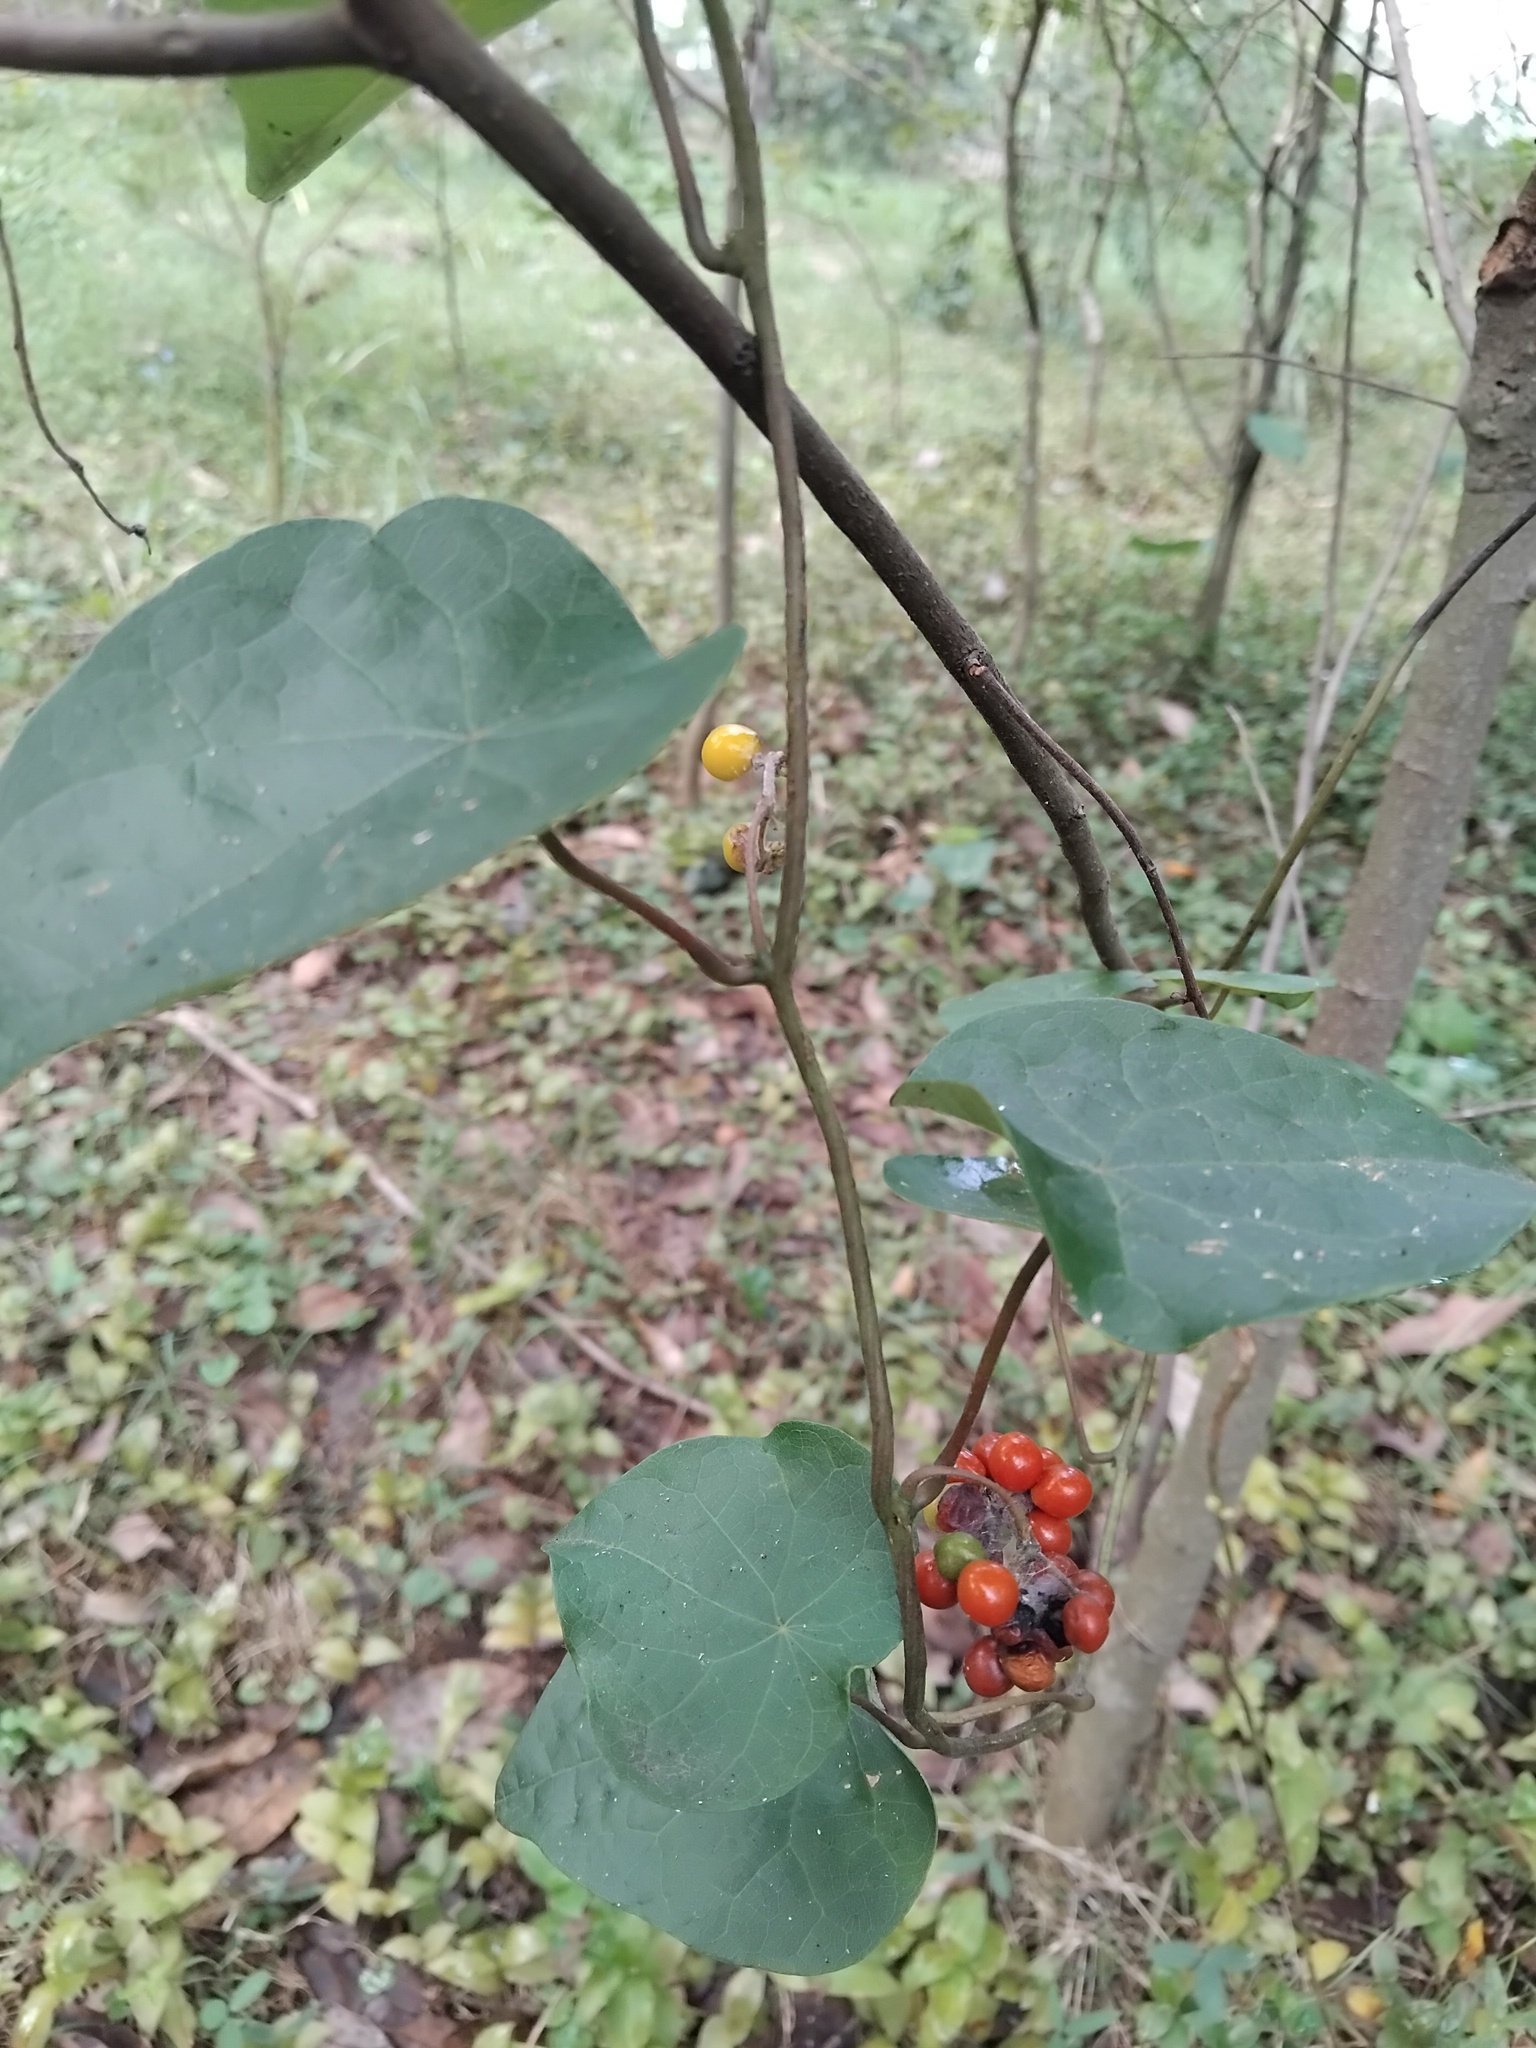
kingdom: Plantae
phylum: Tracheophyta
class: Magnoliopsida
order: Ranunculales
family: Menispermaceae
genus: Stephania
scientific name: Stephania japonica
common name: Snake vine
